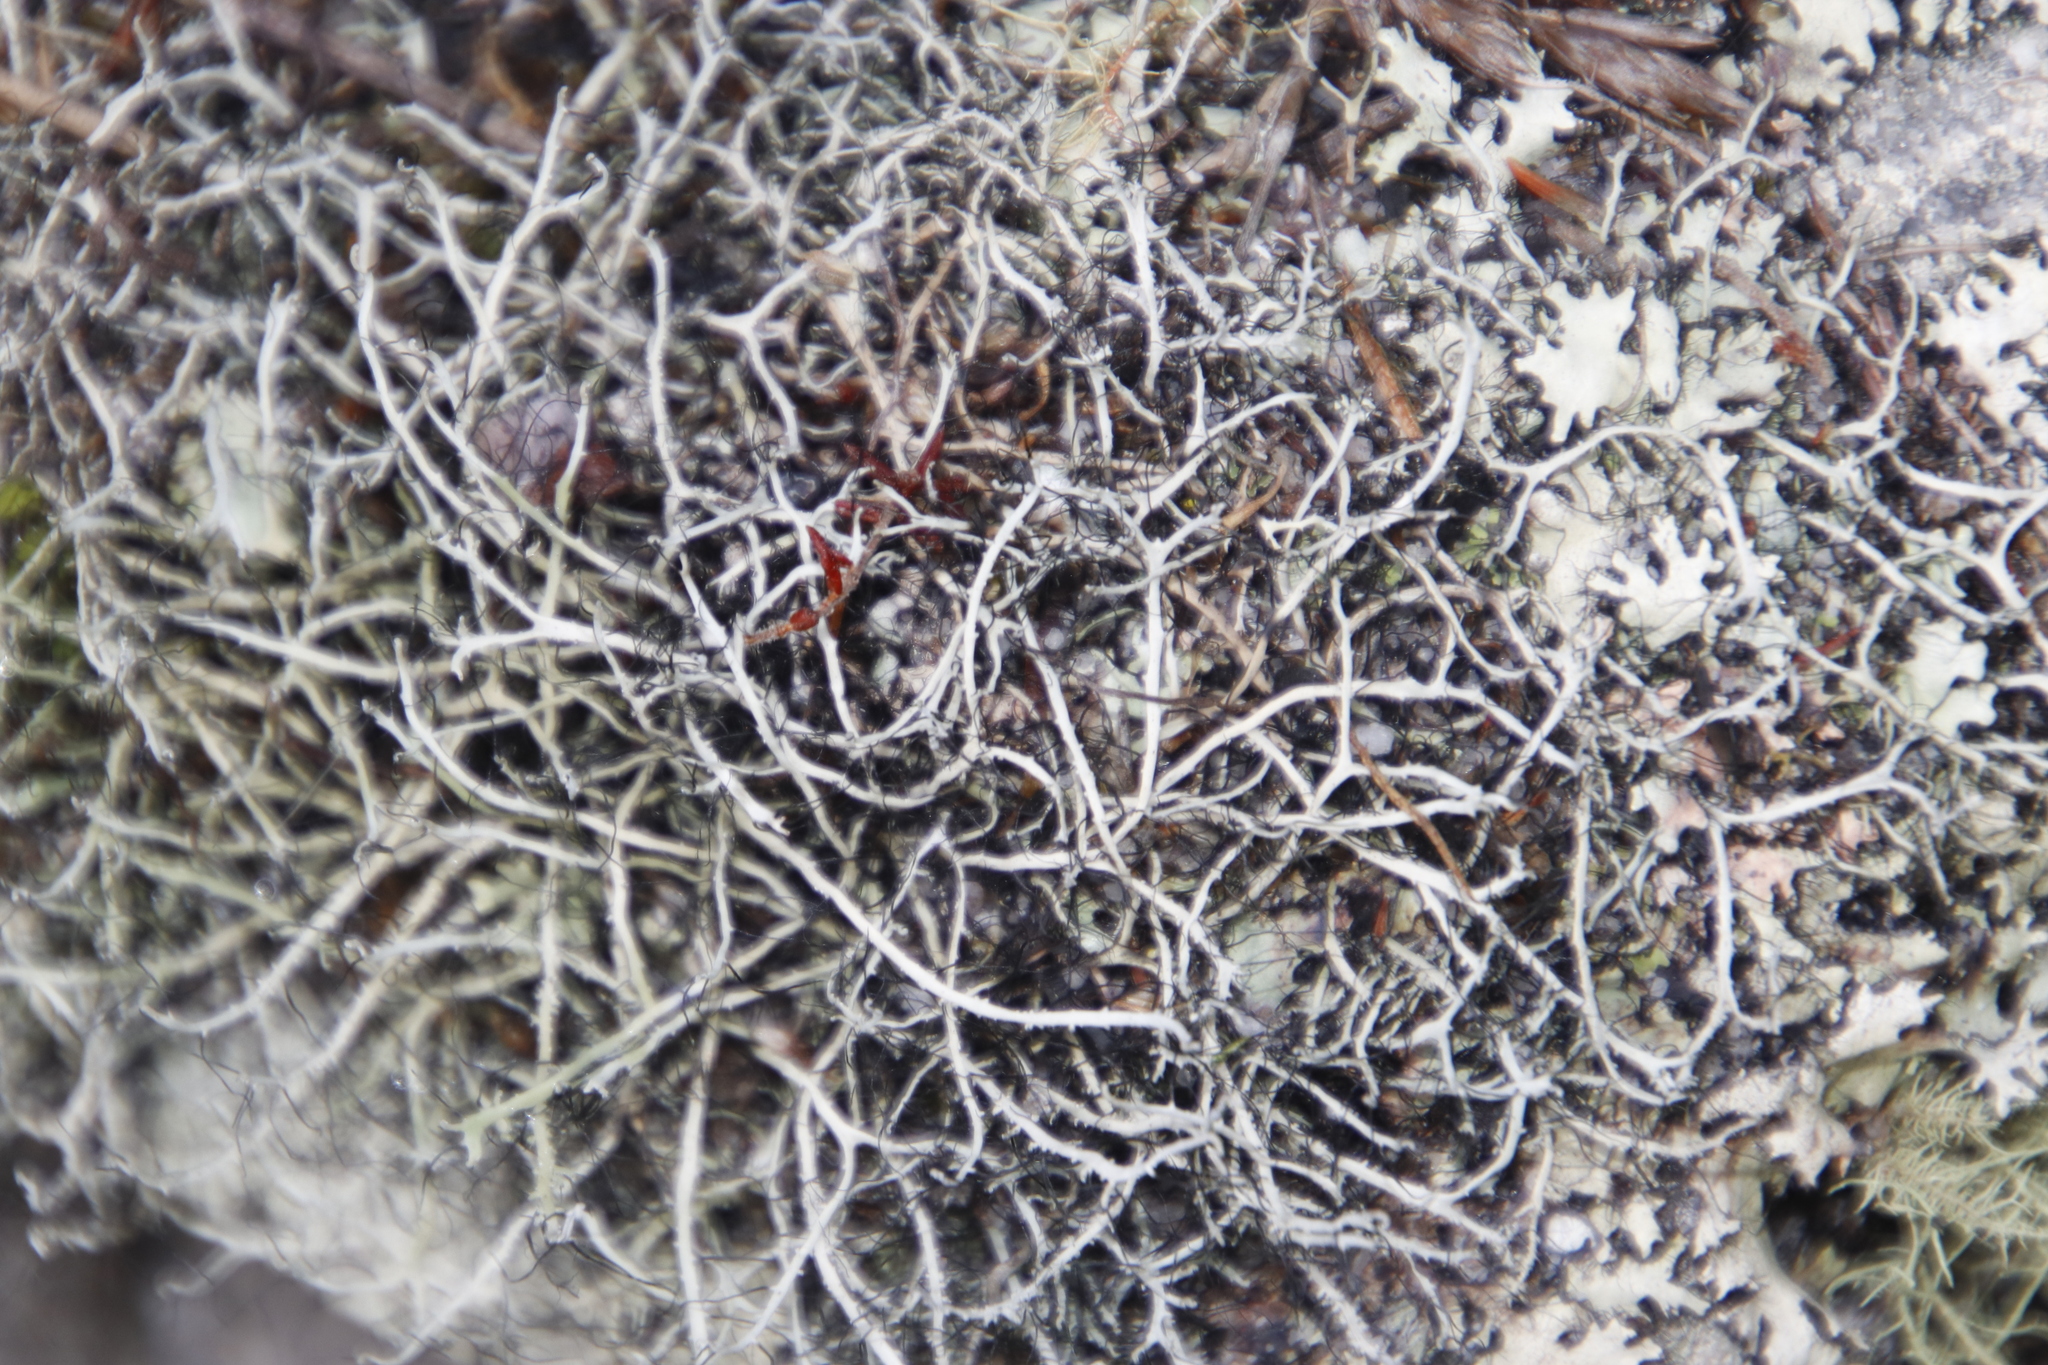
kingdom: Fungi
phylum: Ascomycota
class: Lecanoromycetes
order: Caliciales
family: Physciaceae
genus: Leucodermia
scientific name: Leucodermia leucomelos
